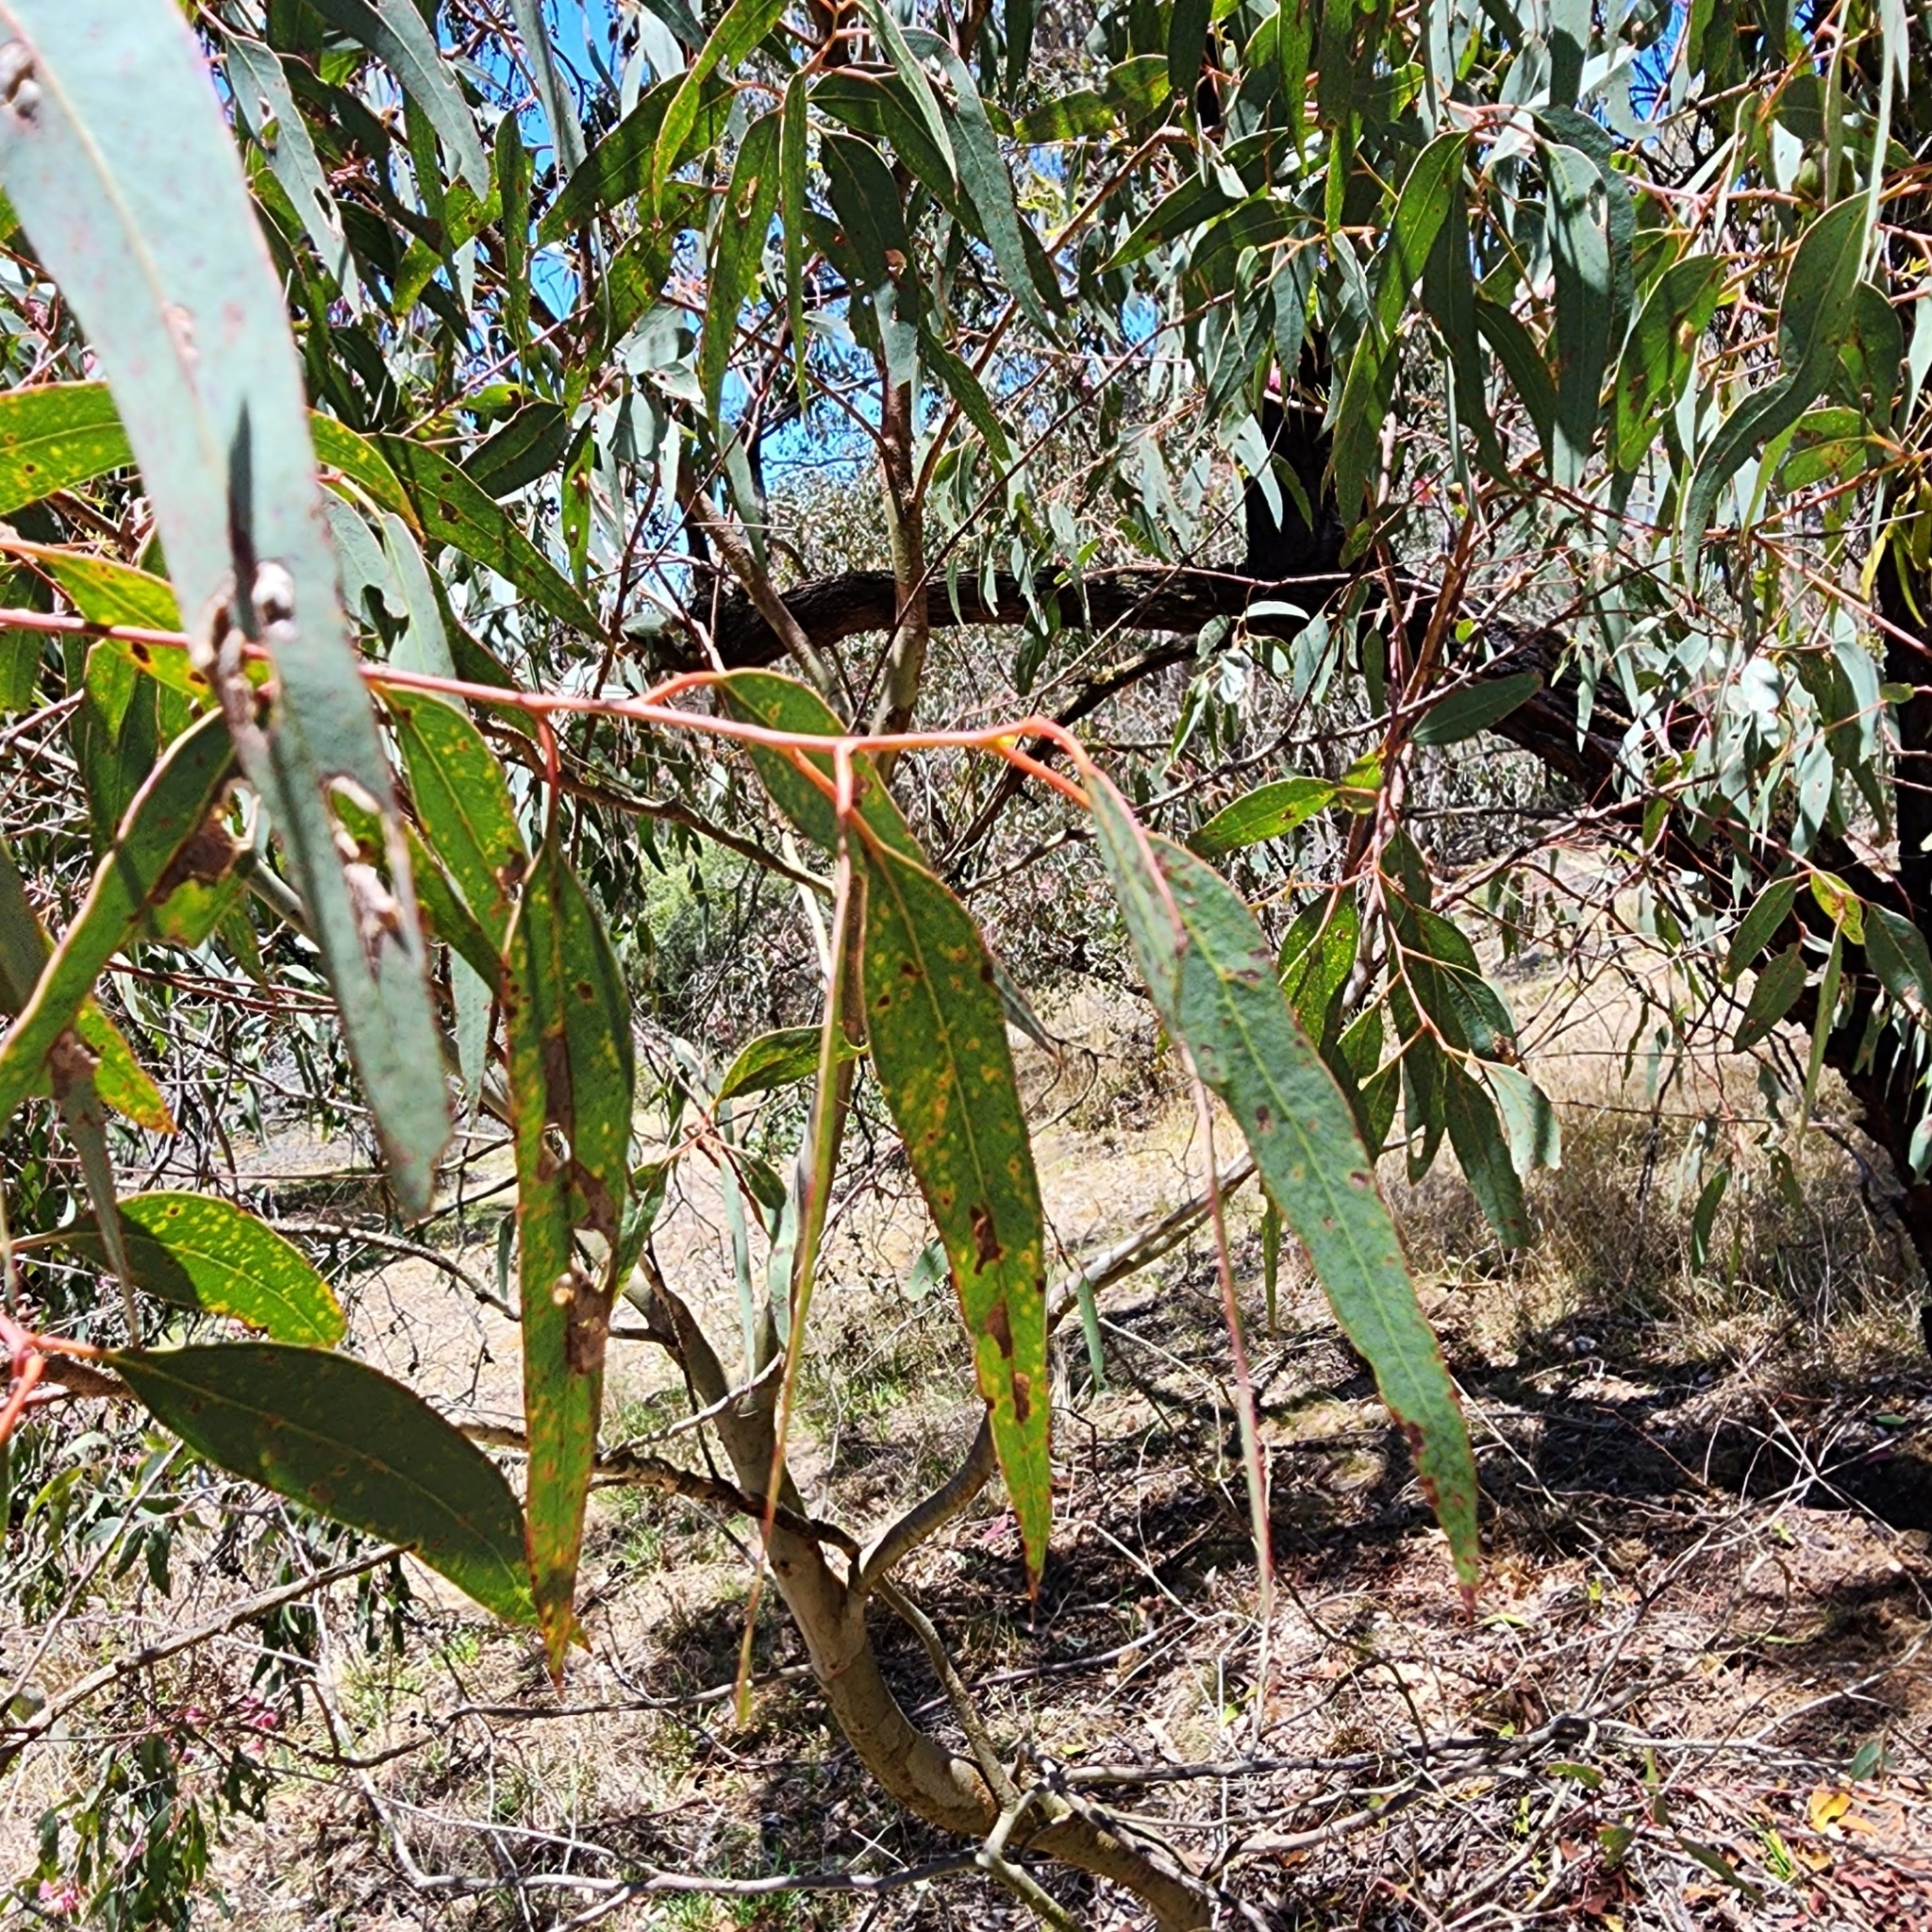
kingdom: Plantae
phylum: Tracheophyta
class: Magnoliopsida
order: Myrtales
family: Myrtaceae
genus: Eucalyptus
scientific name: Eucalyptus sideroxylon
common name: Red ironbark
